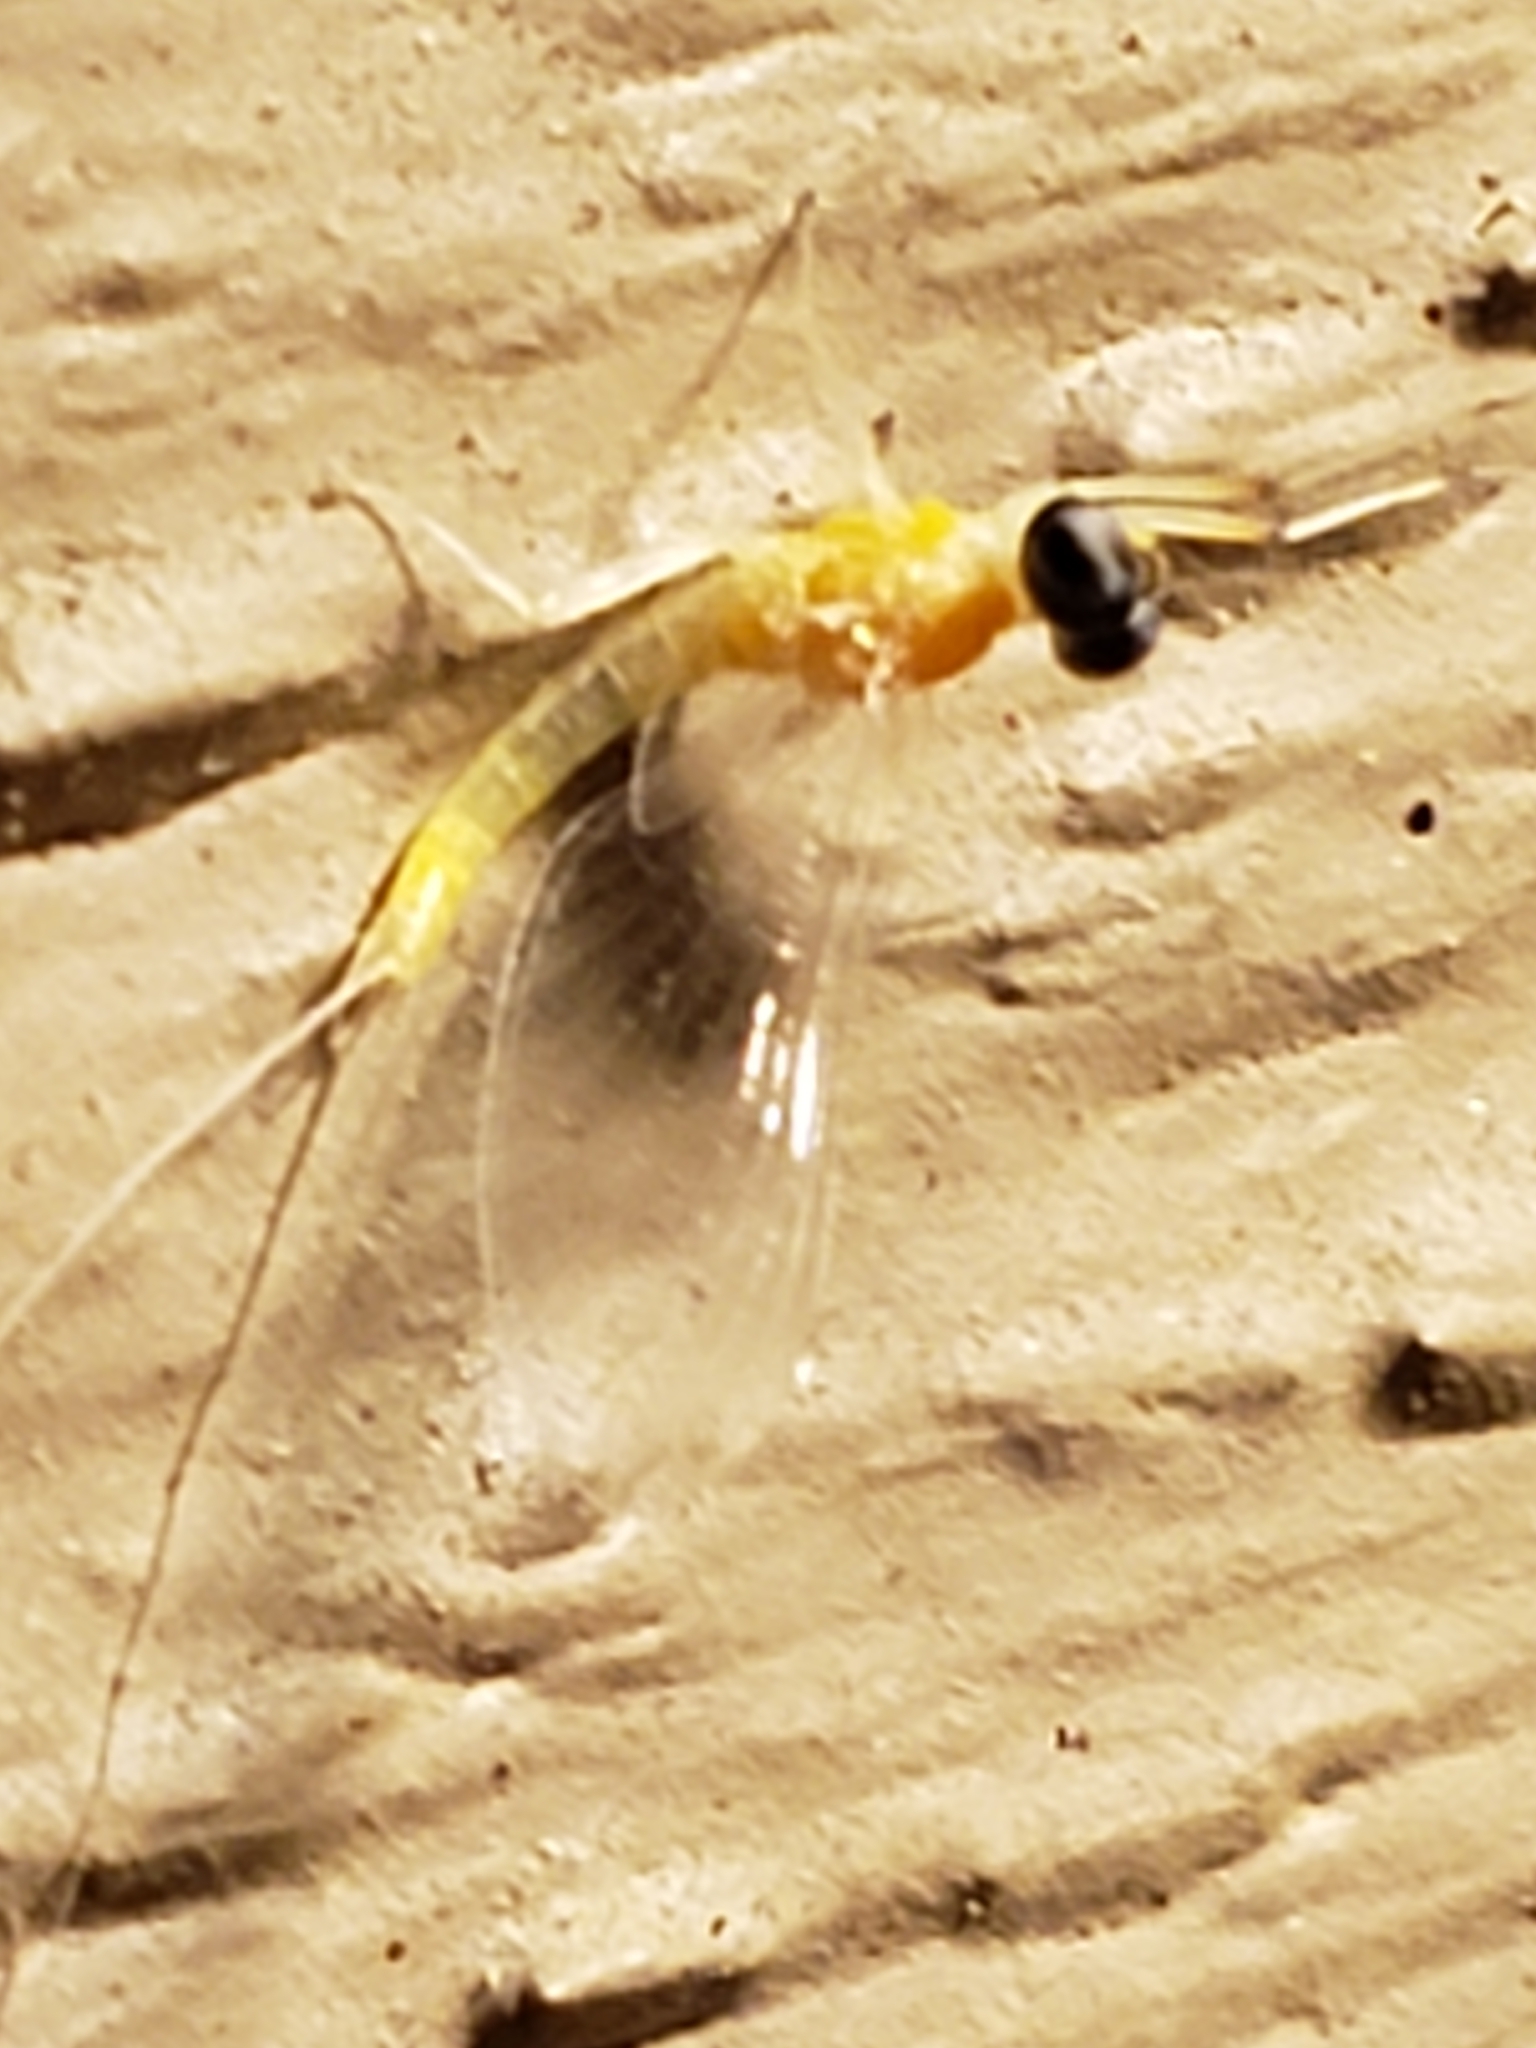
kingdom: Animalia
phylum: Arthropoda
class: Insecta
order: Ephemeroptera
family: Heptageniidae
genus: Nixe
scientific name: Nixe inconspicua
